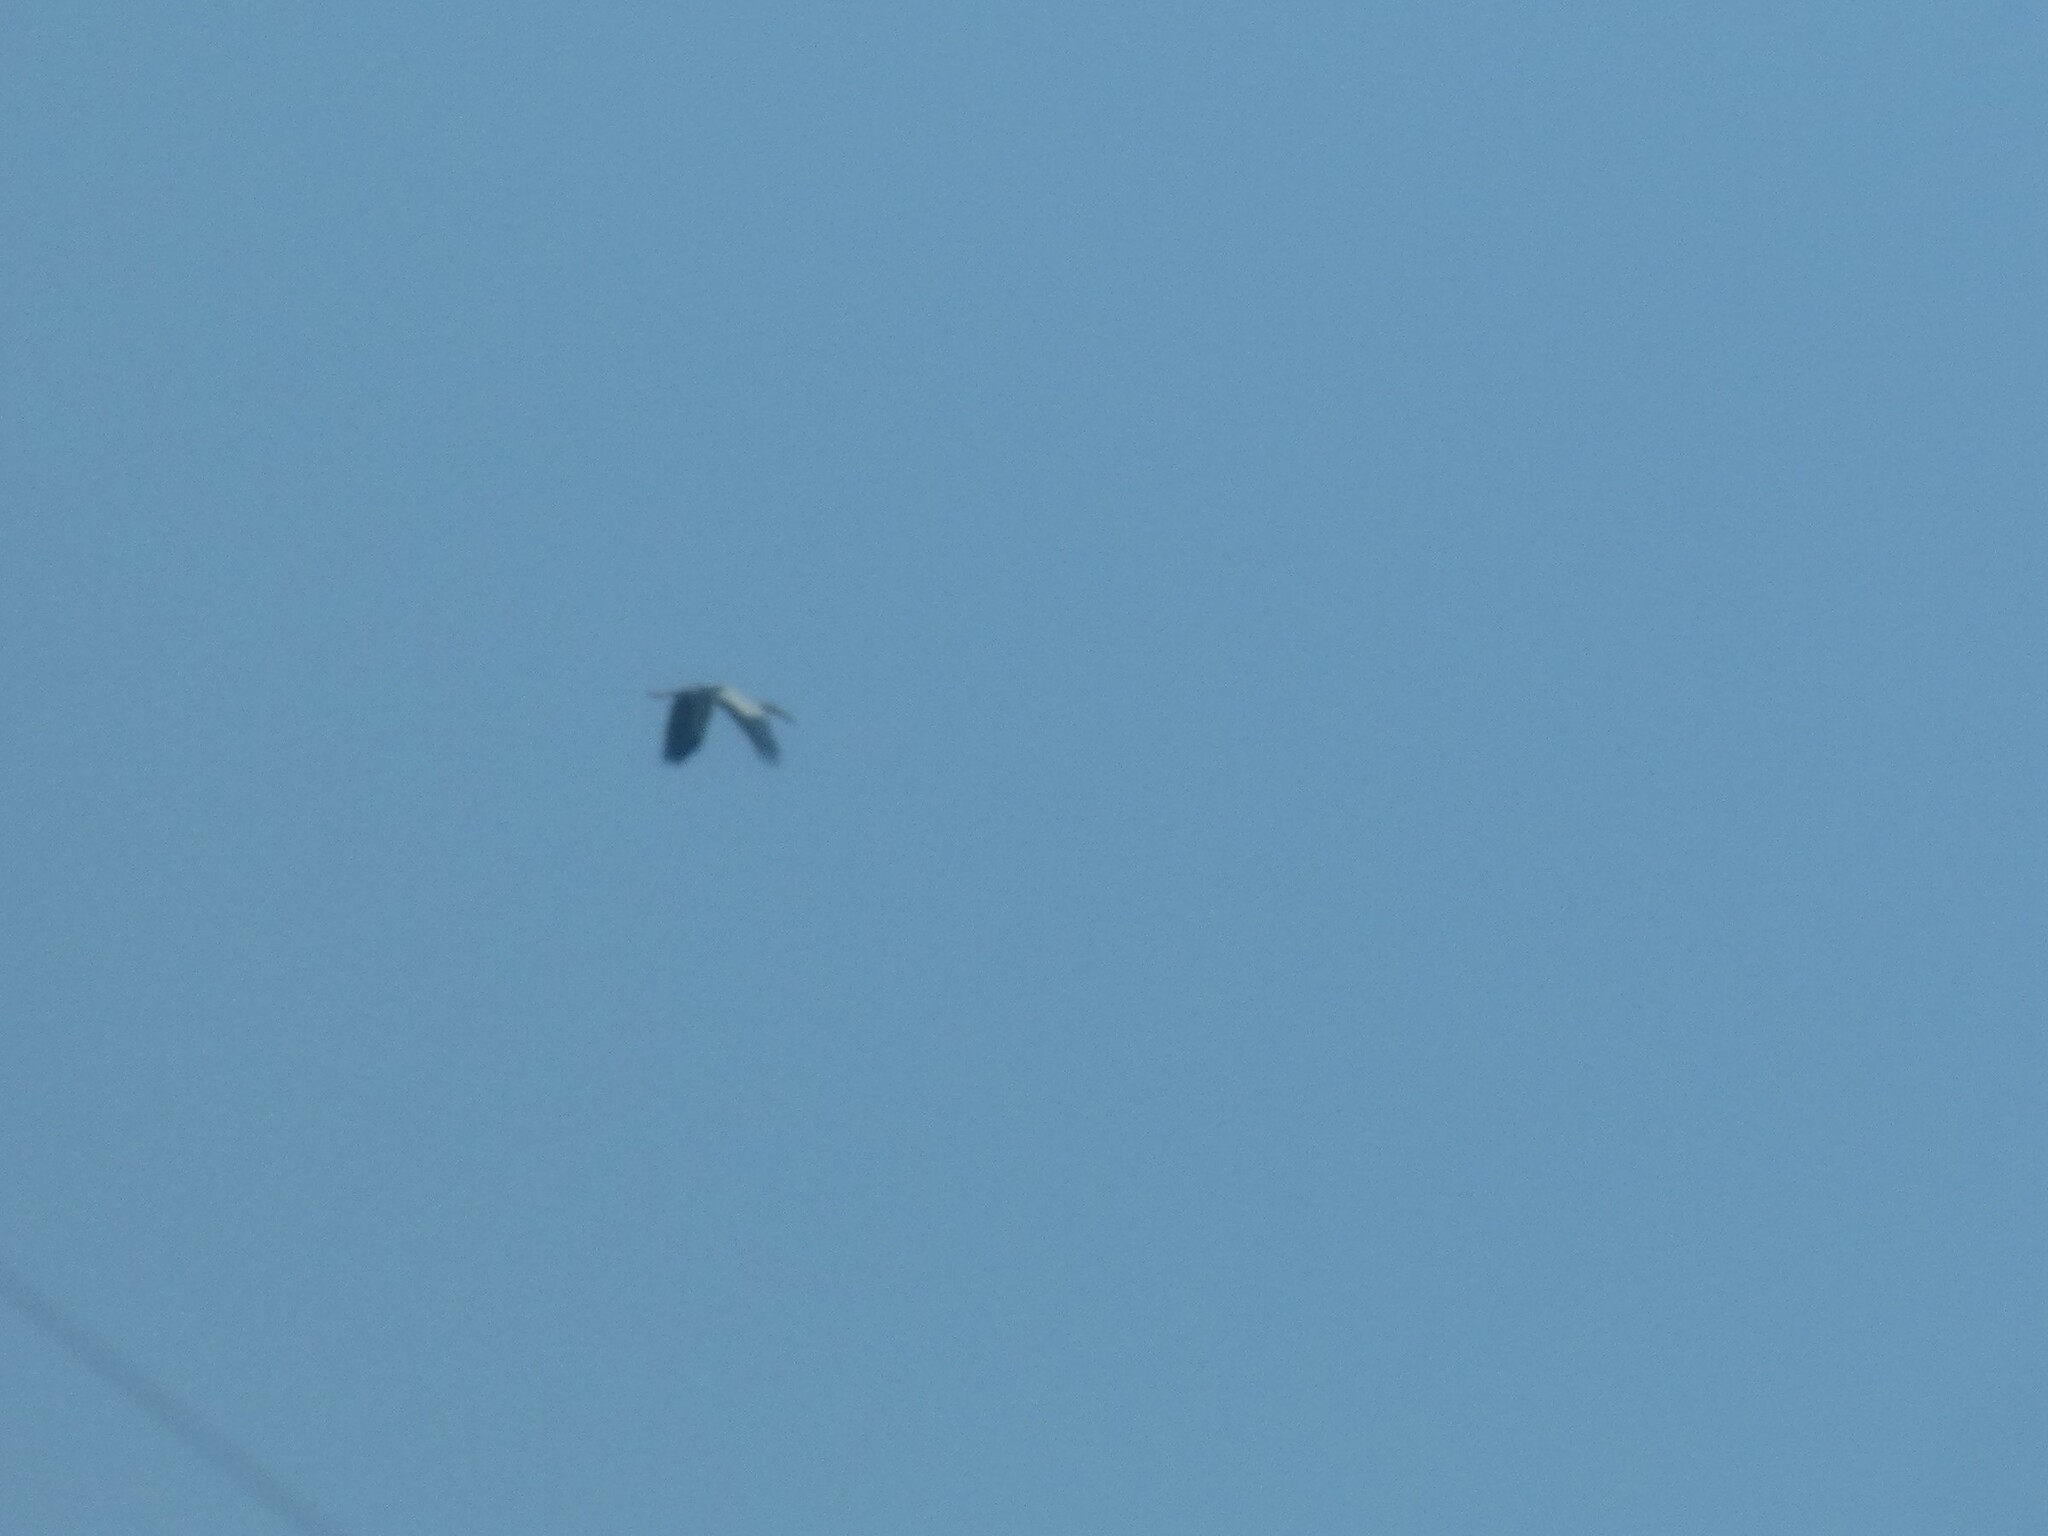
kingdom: Animalia
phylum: Chordata
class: Aves
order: Ciconiiformes
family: Ciconiidae
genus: Anastomus
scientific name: Anastomus oscitans
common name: Asian openbill
